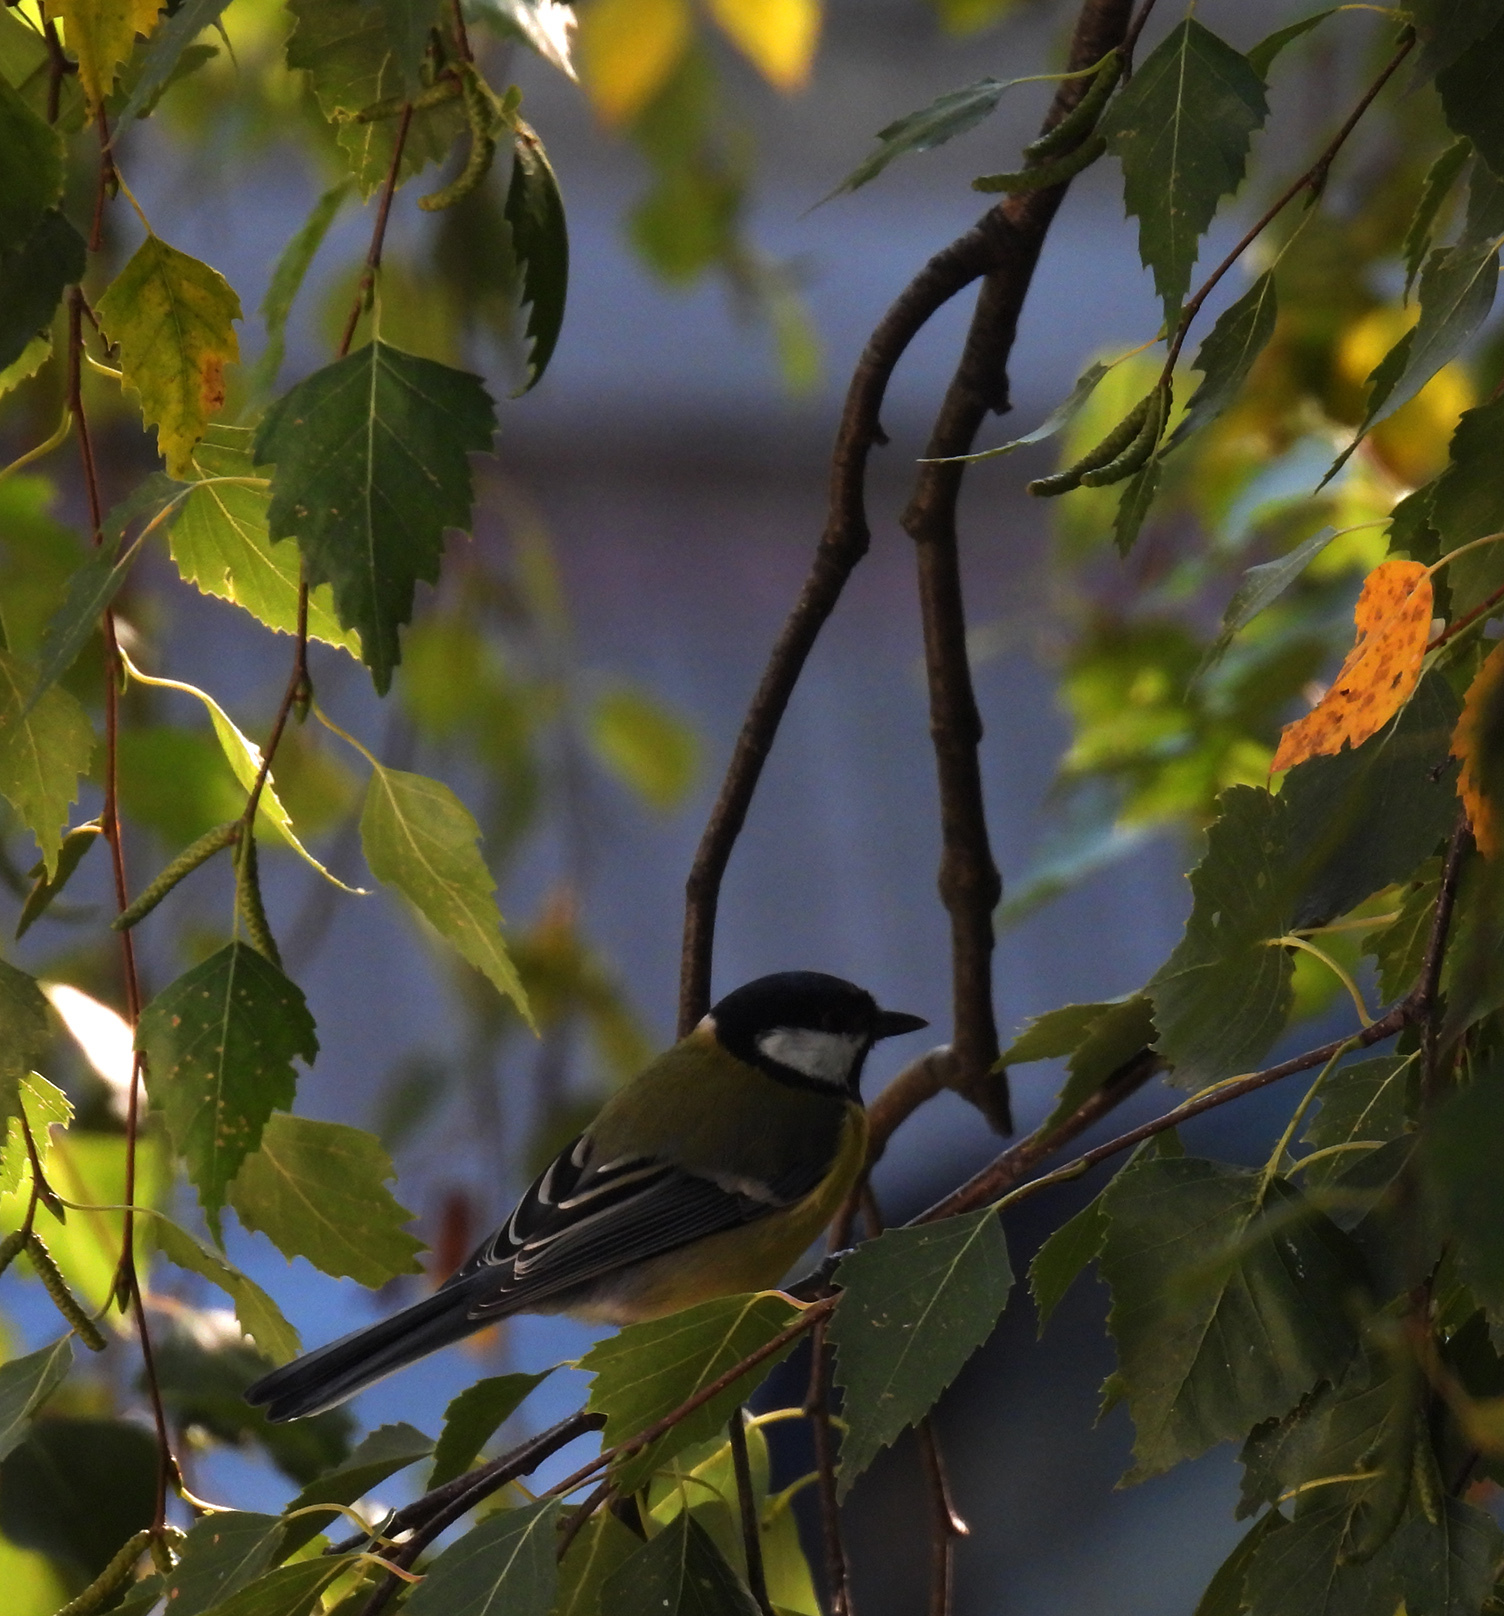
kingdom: Animalia
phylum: Chordata
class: Aves
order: Passeriformes
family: Paridae
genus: Parus
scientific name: Parus major
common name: Great tit
